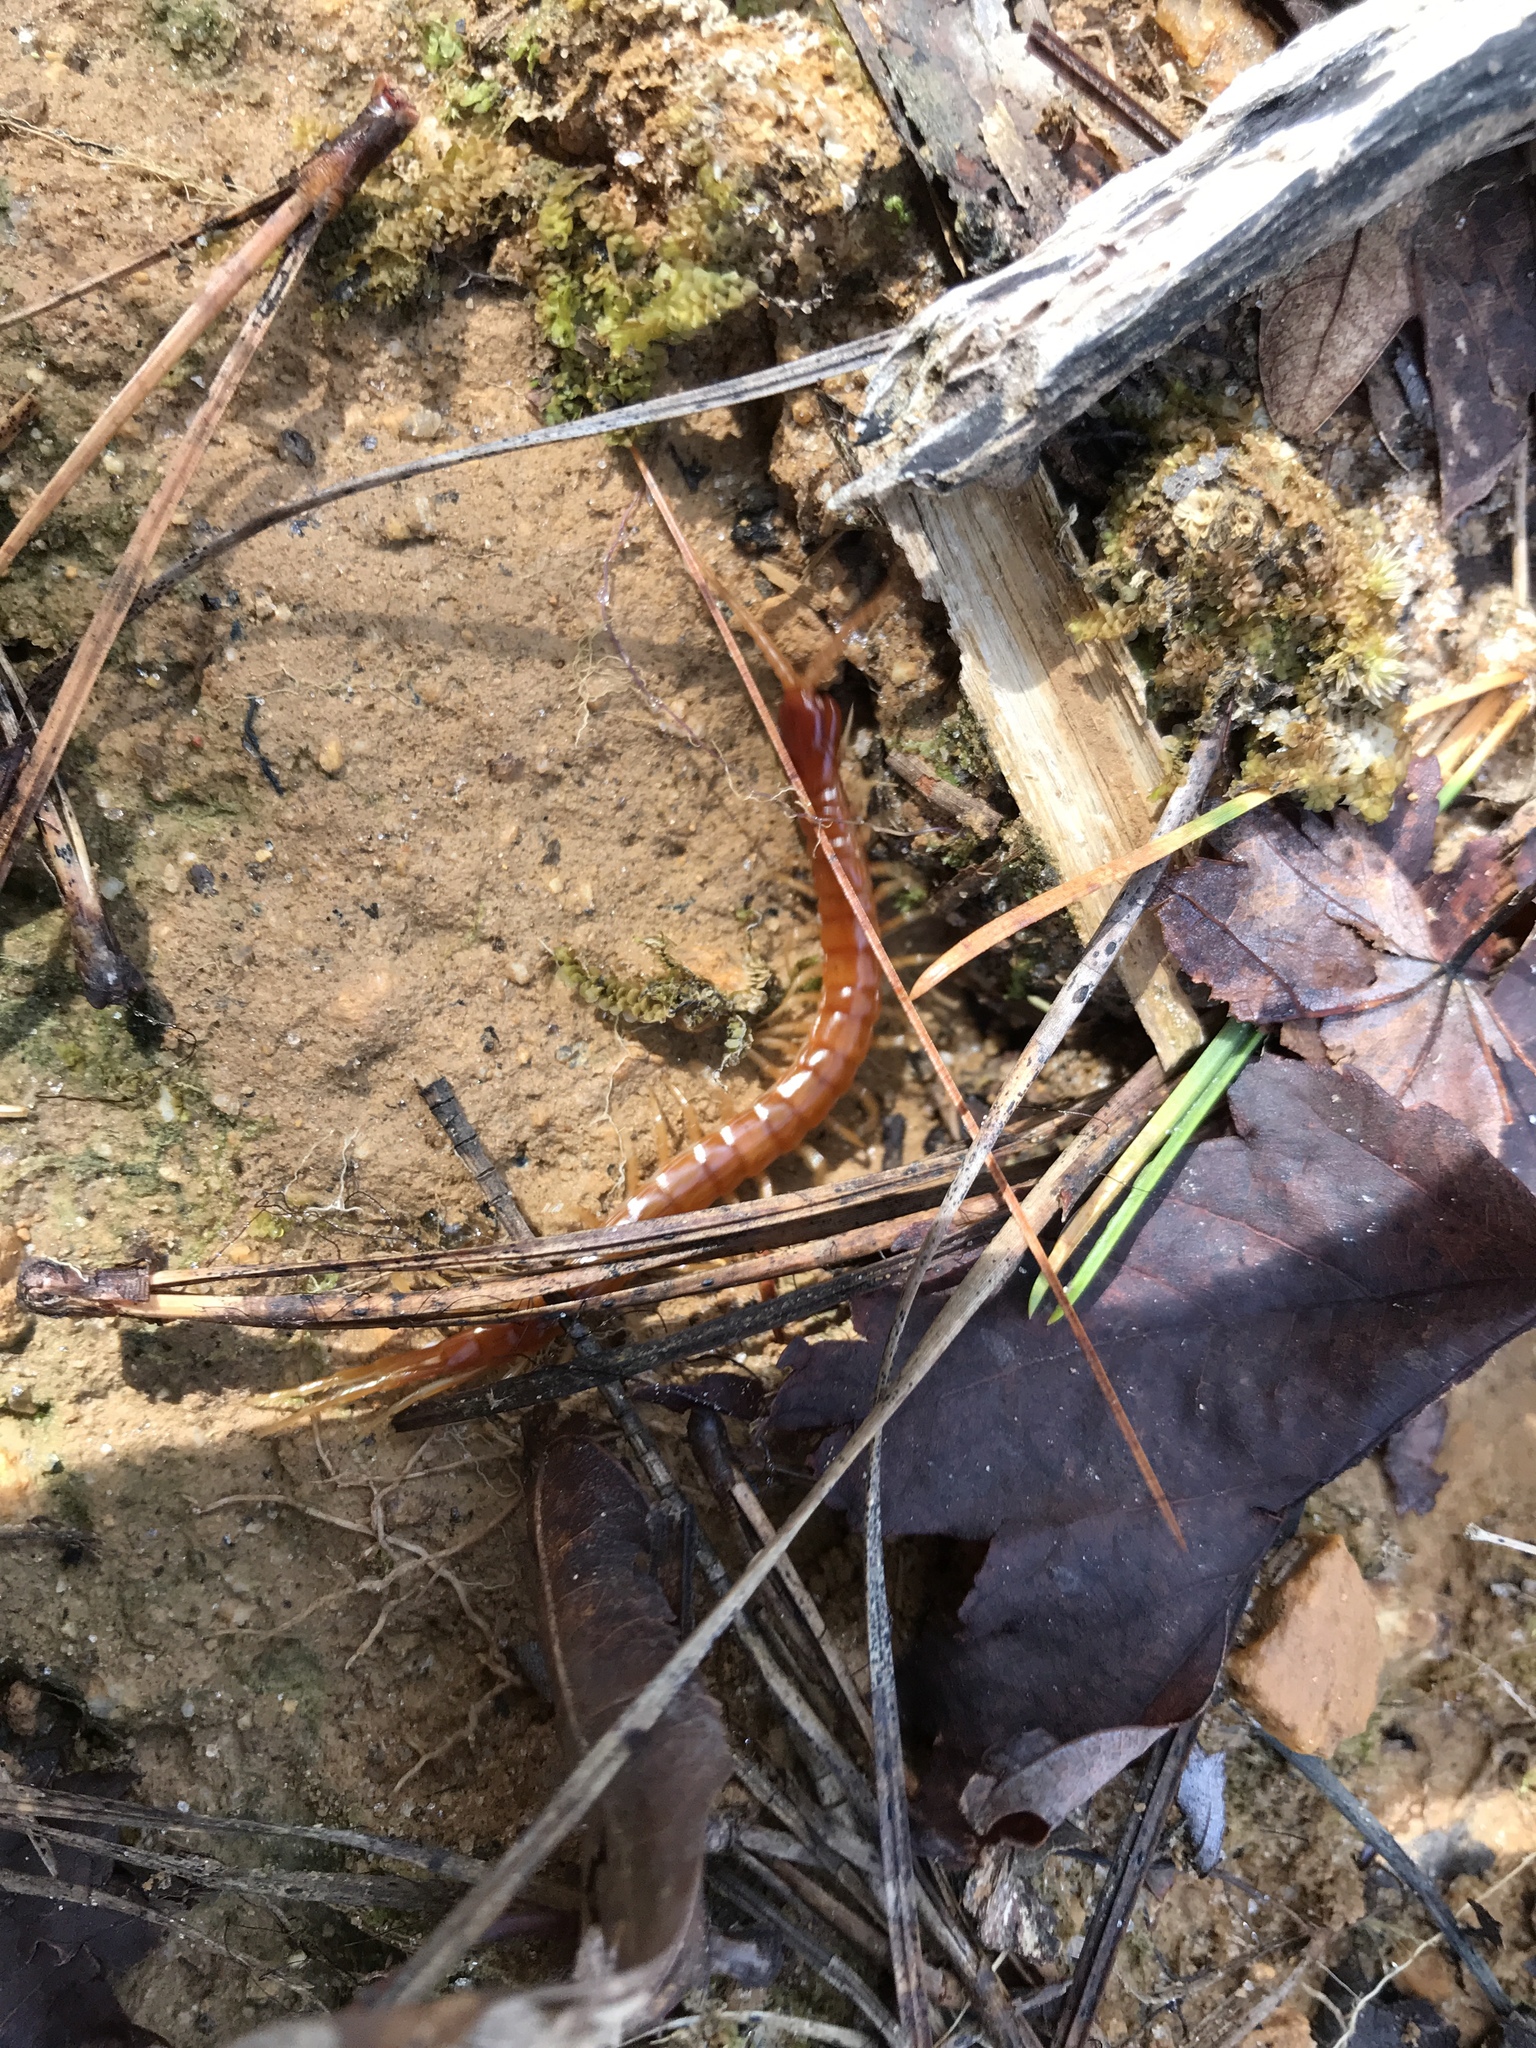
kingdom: Animalia
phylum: Arthropoda
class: Chilopoda
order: Scolopendromorpha
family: Scolopocryptopidae
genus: Scolopocryptops
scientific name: Scolopocryptops sexspinosus
